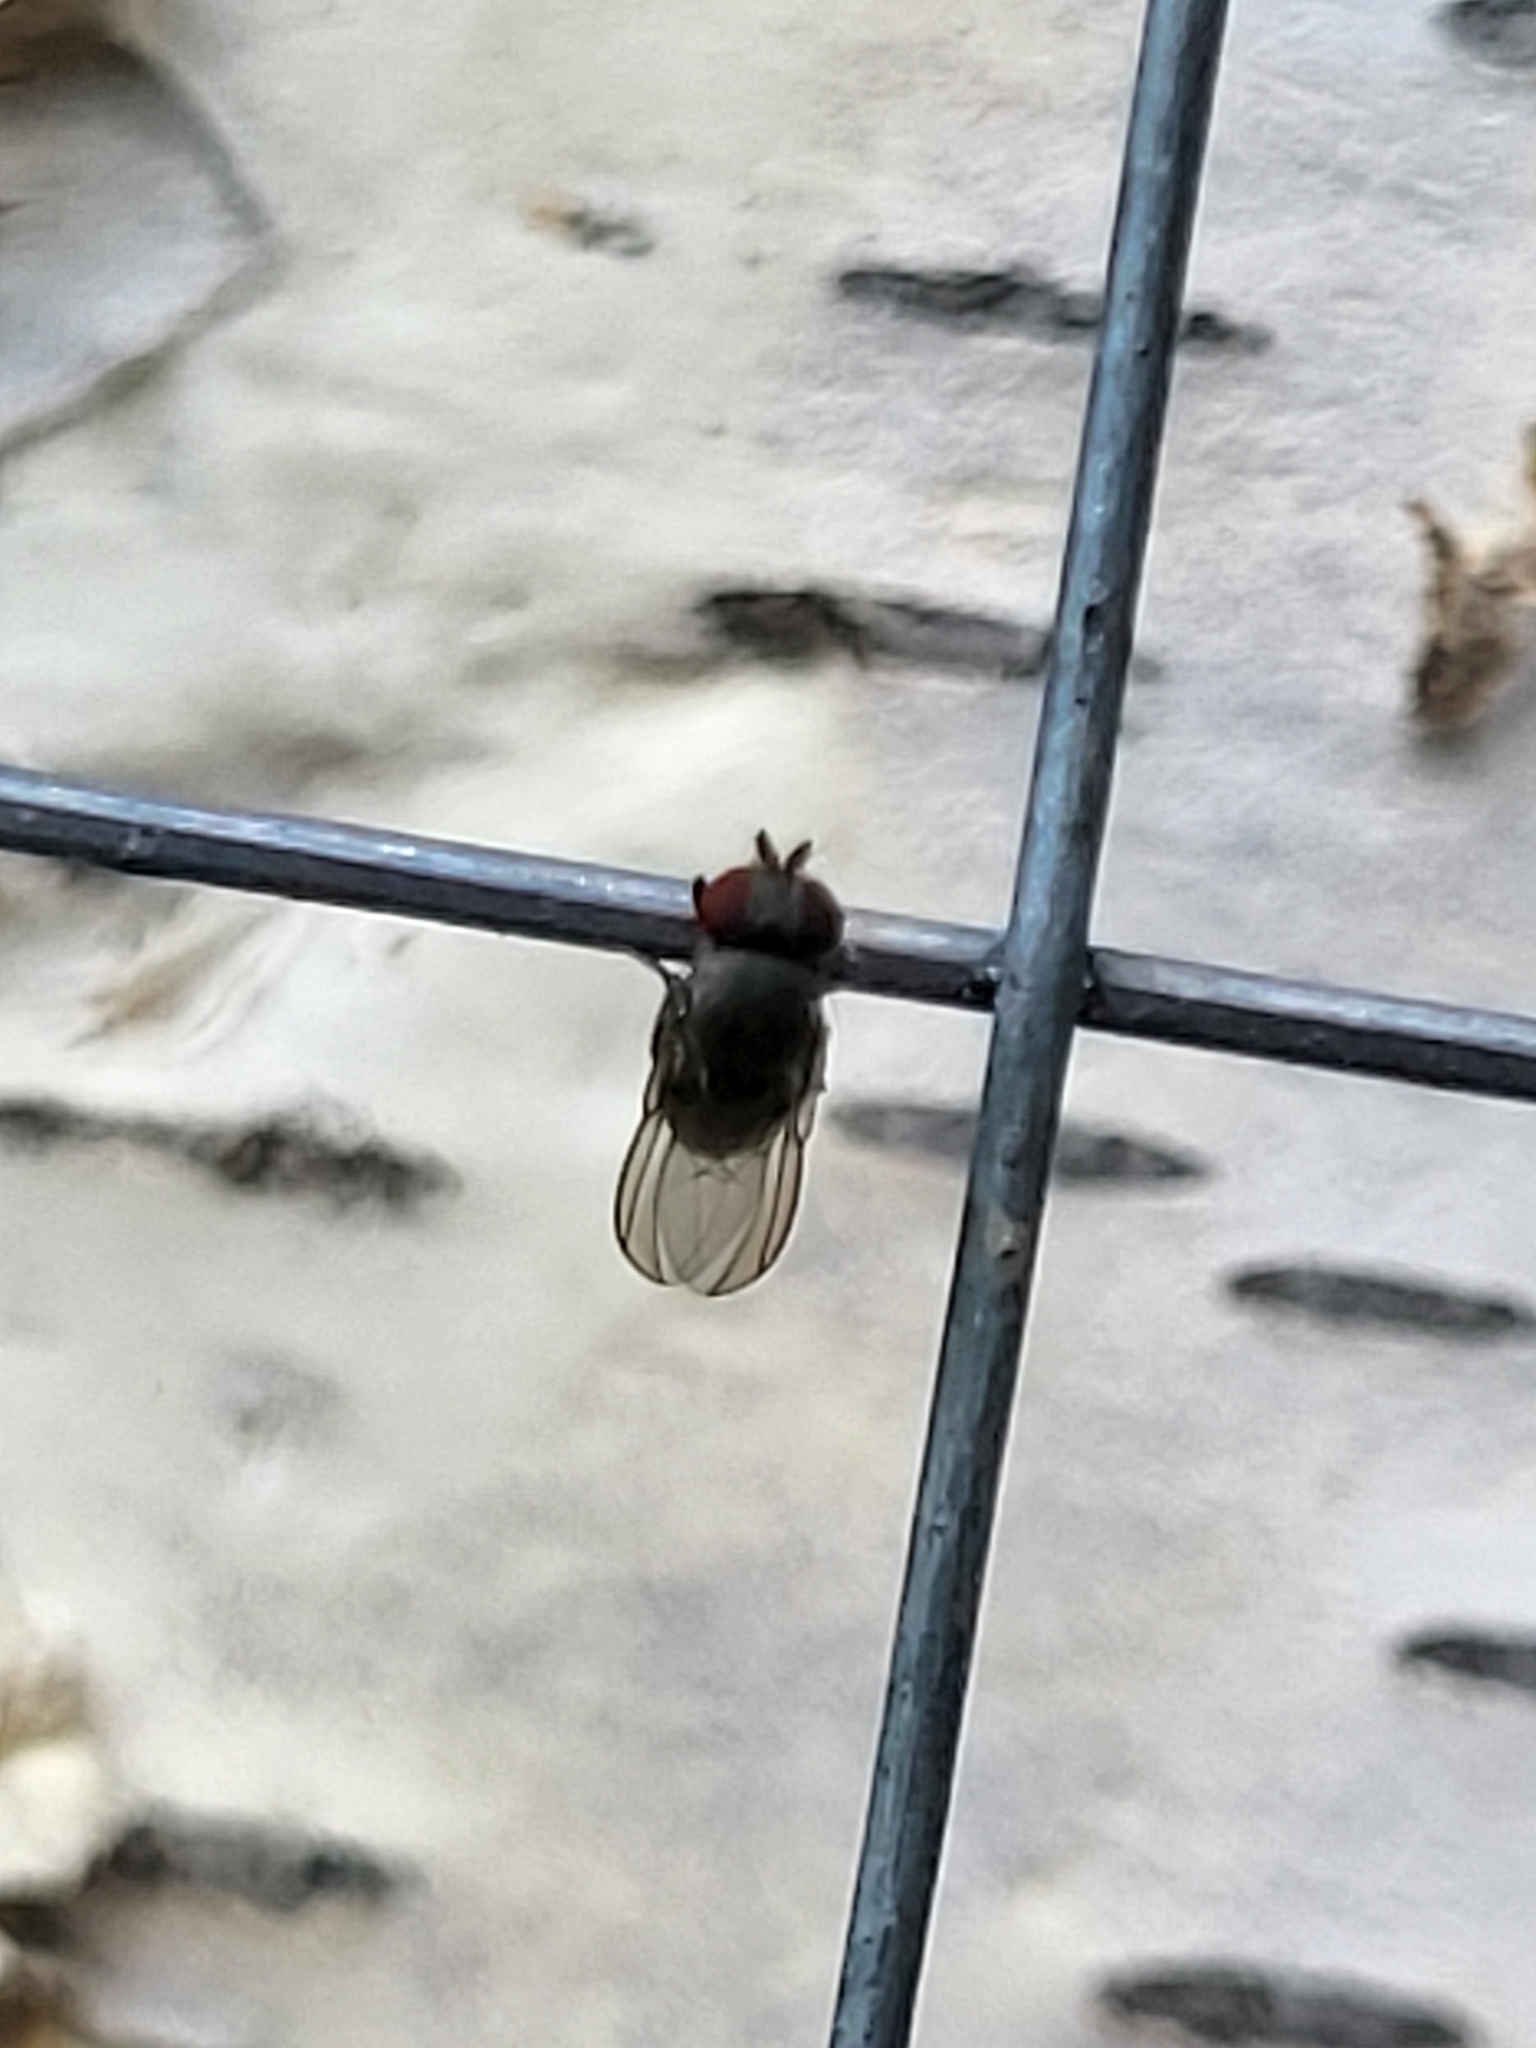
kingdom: Animalia
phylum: Arthropoda
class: Insecta
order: Diptera
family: Drosophilidae
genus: Cacoxenus
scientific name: Cacoxenus indagator
